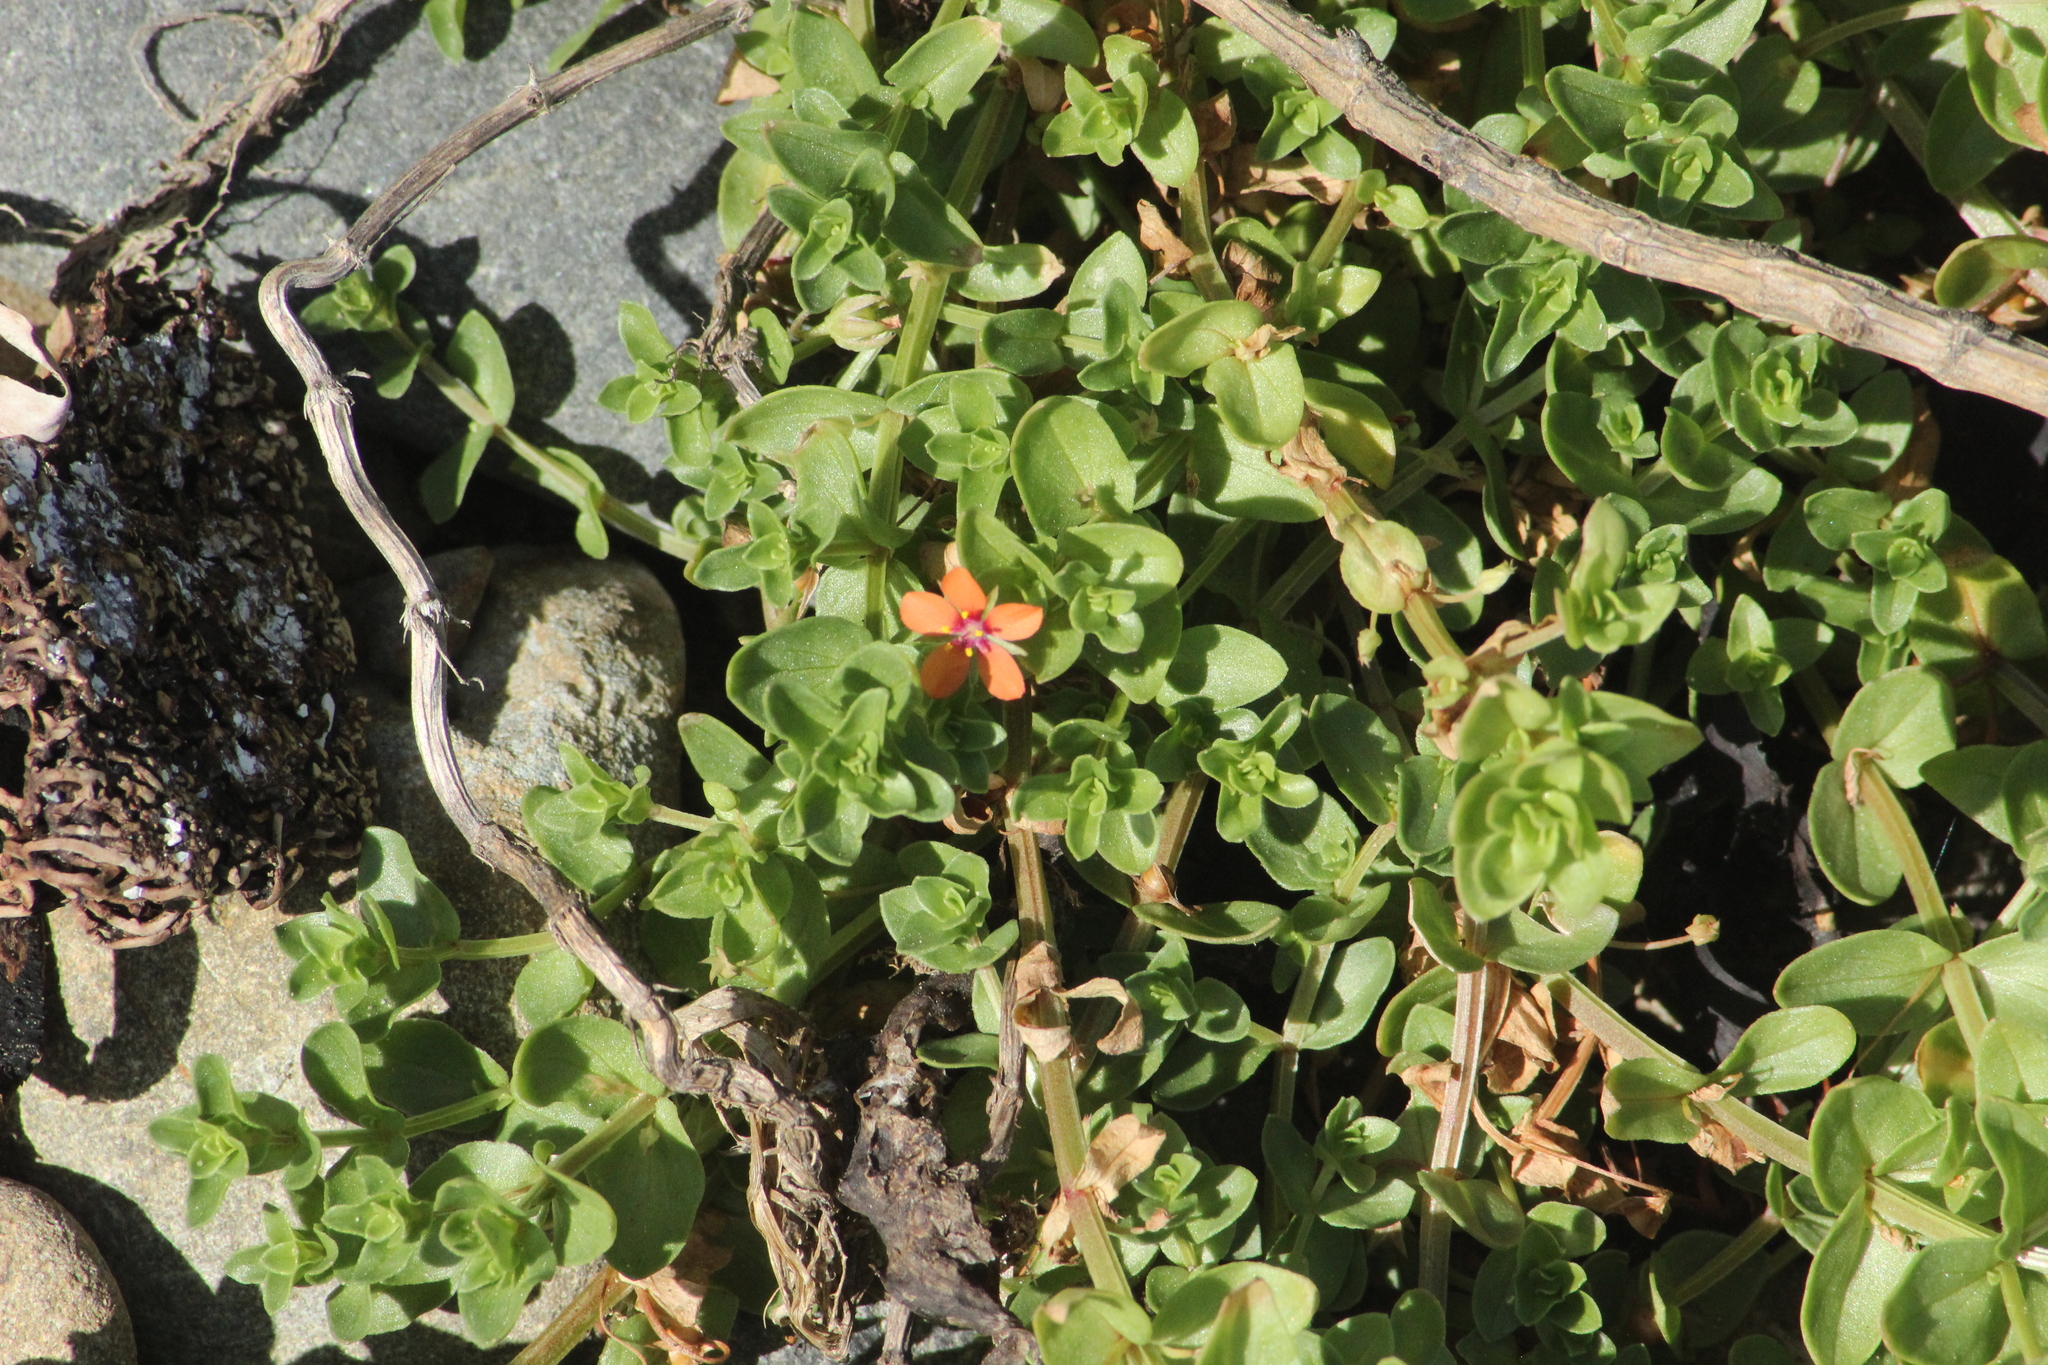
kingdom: Plantae
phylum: Tracheophyta
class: Magnoliopsida
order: Ericales
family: Primulaceae
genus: Lysimachia
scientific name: Lysimachia arvensis
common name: Scarlet pimpernel
